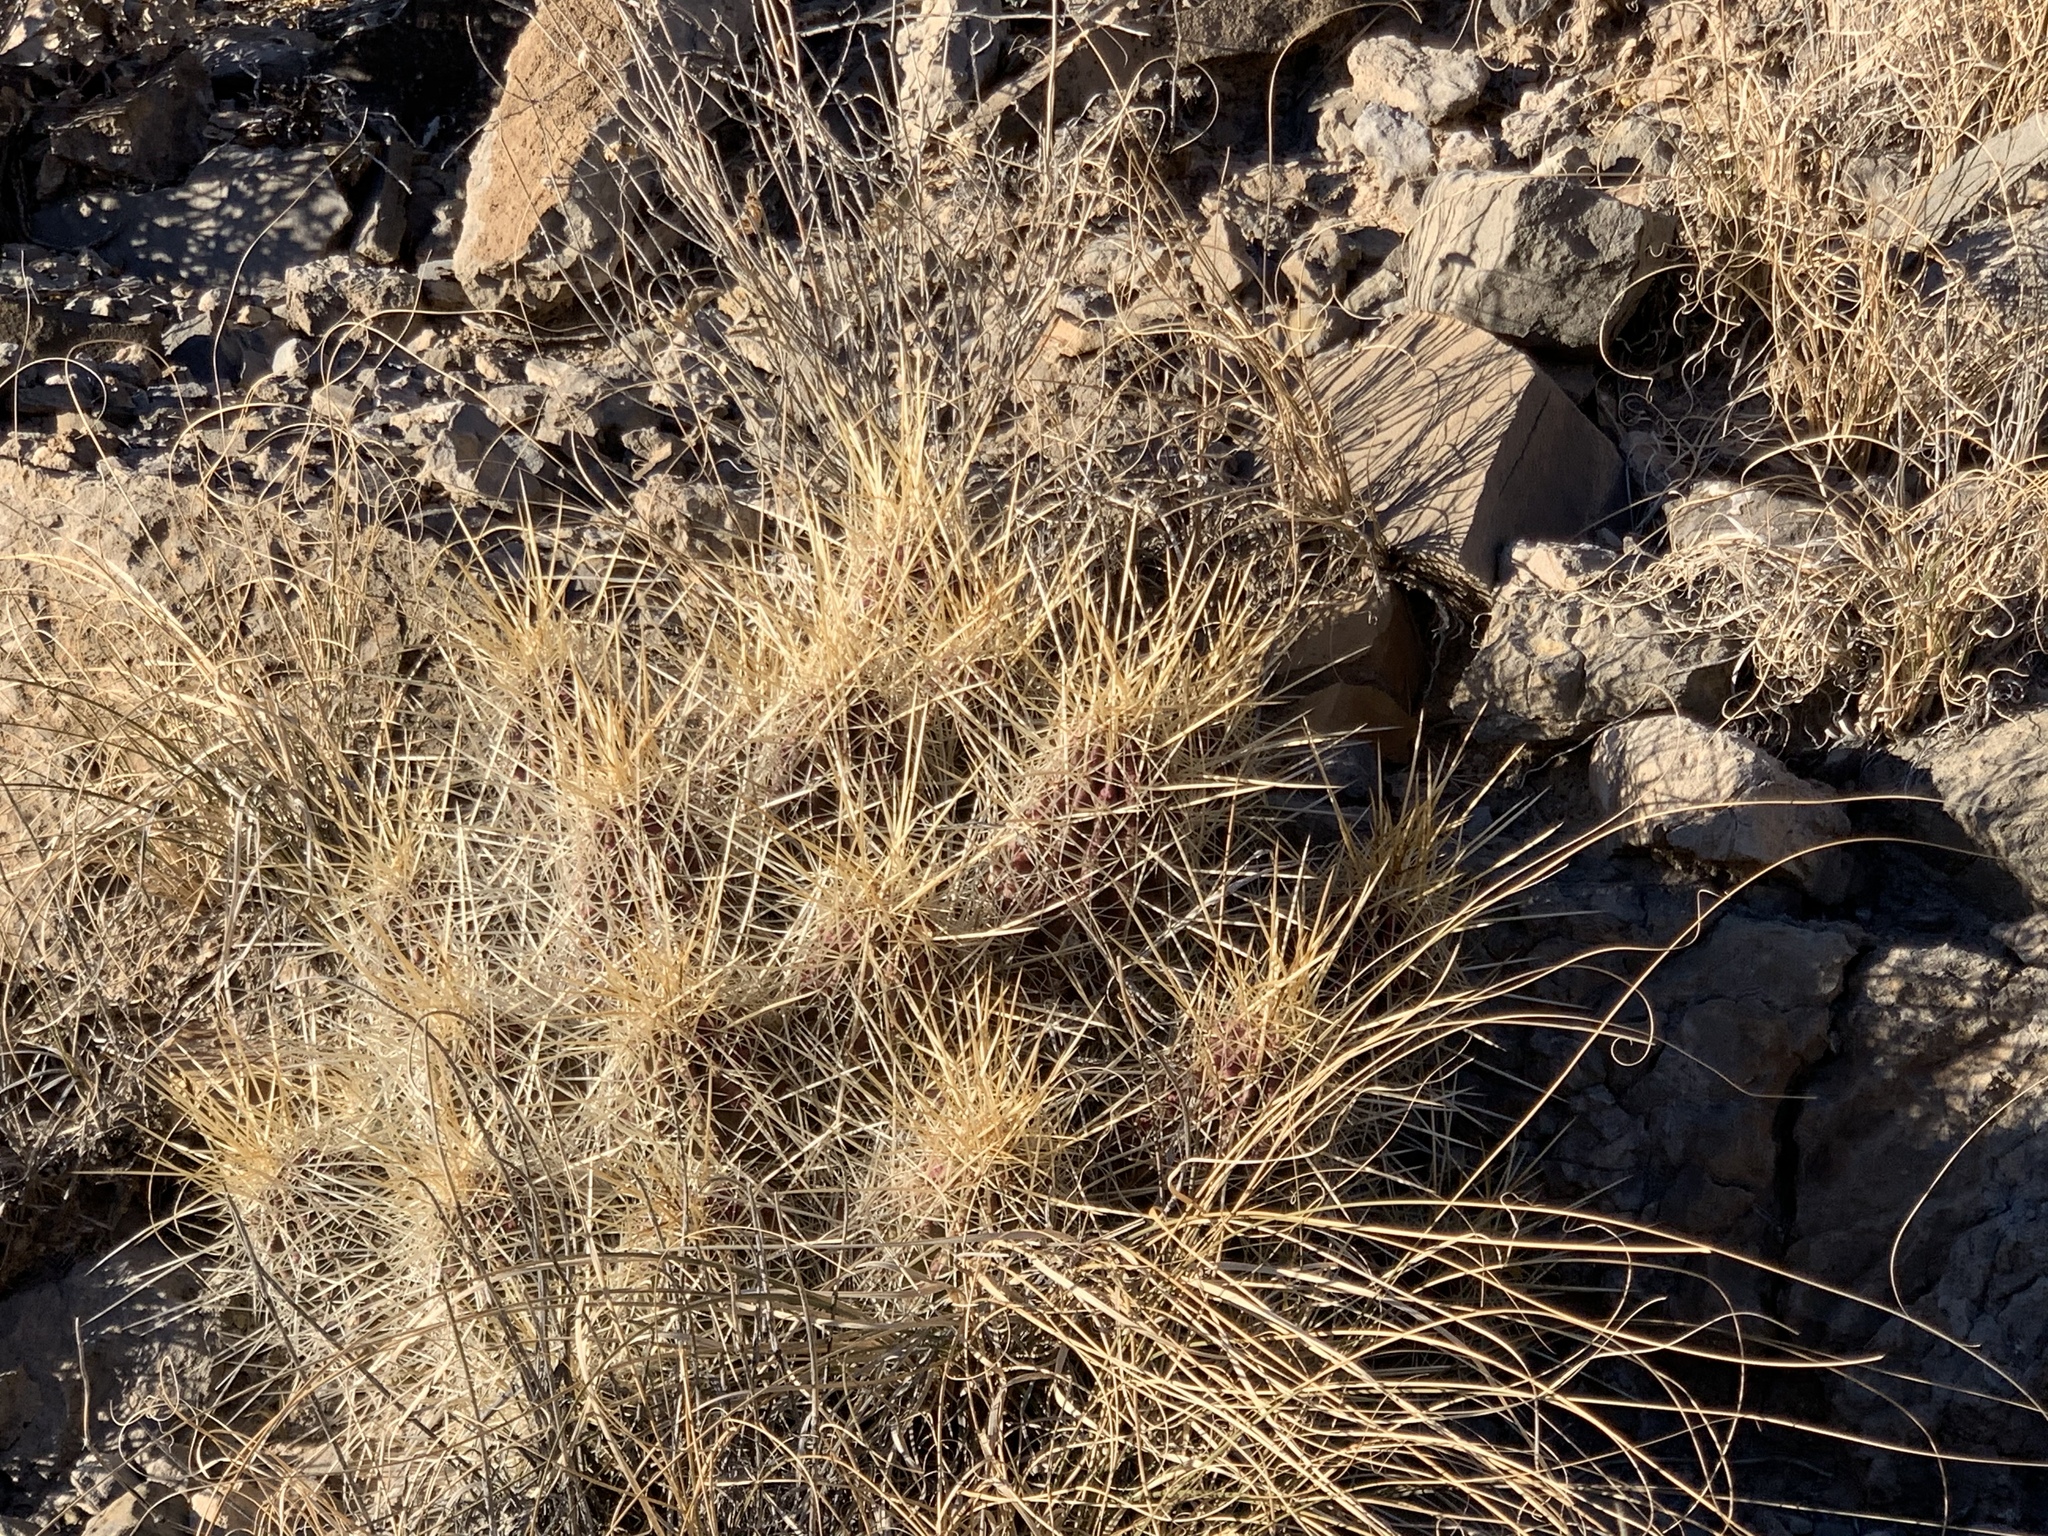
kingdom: Plantae
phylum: Tracheophyta
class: Magnoliopsida
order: Caryophyllales
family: Cactaceae
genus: Echinocereus
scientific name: Echinocereus stramineus
